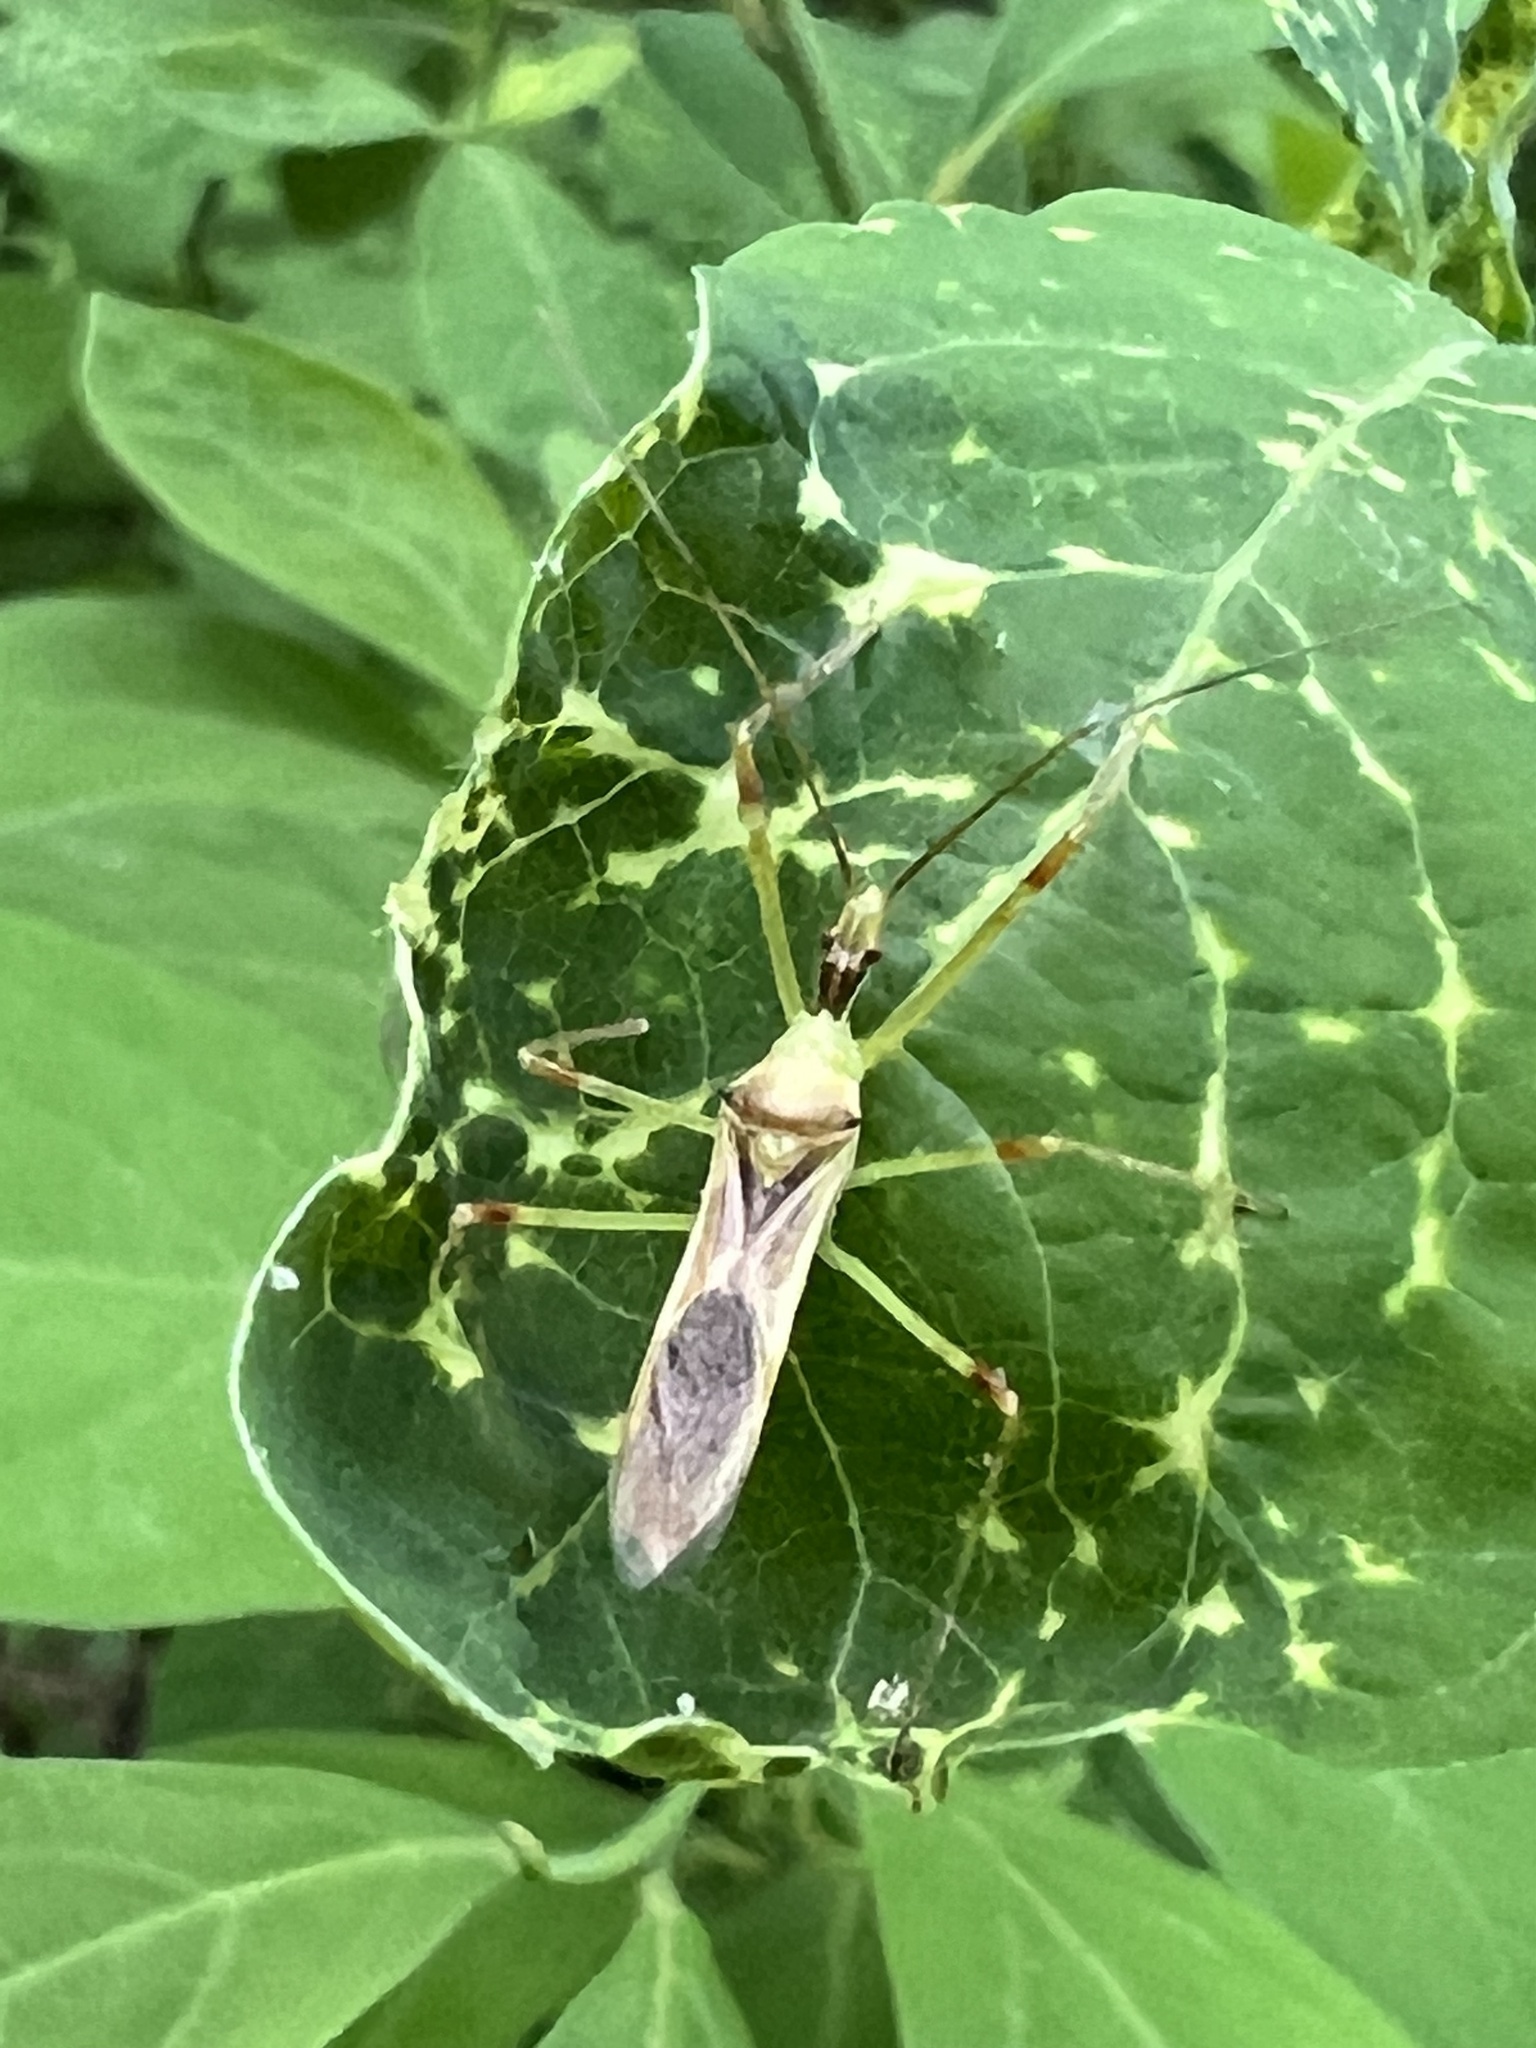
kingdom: Animalia
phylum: Arthropoda
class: Insecta
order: Hemiptera
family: Reduviidae
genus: Zelus
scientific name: Zelus luridus
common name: Pale green assassin bug
